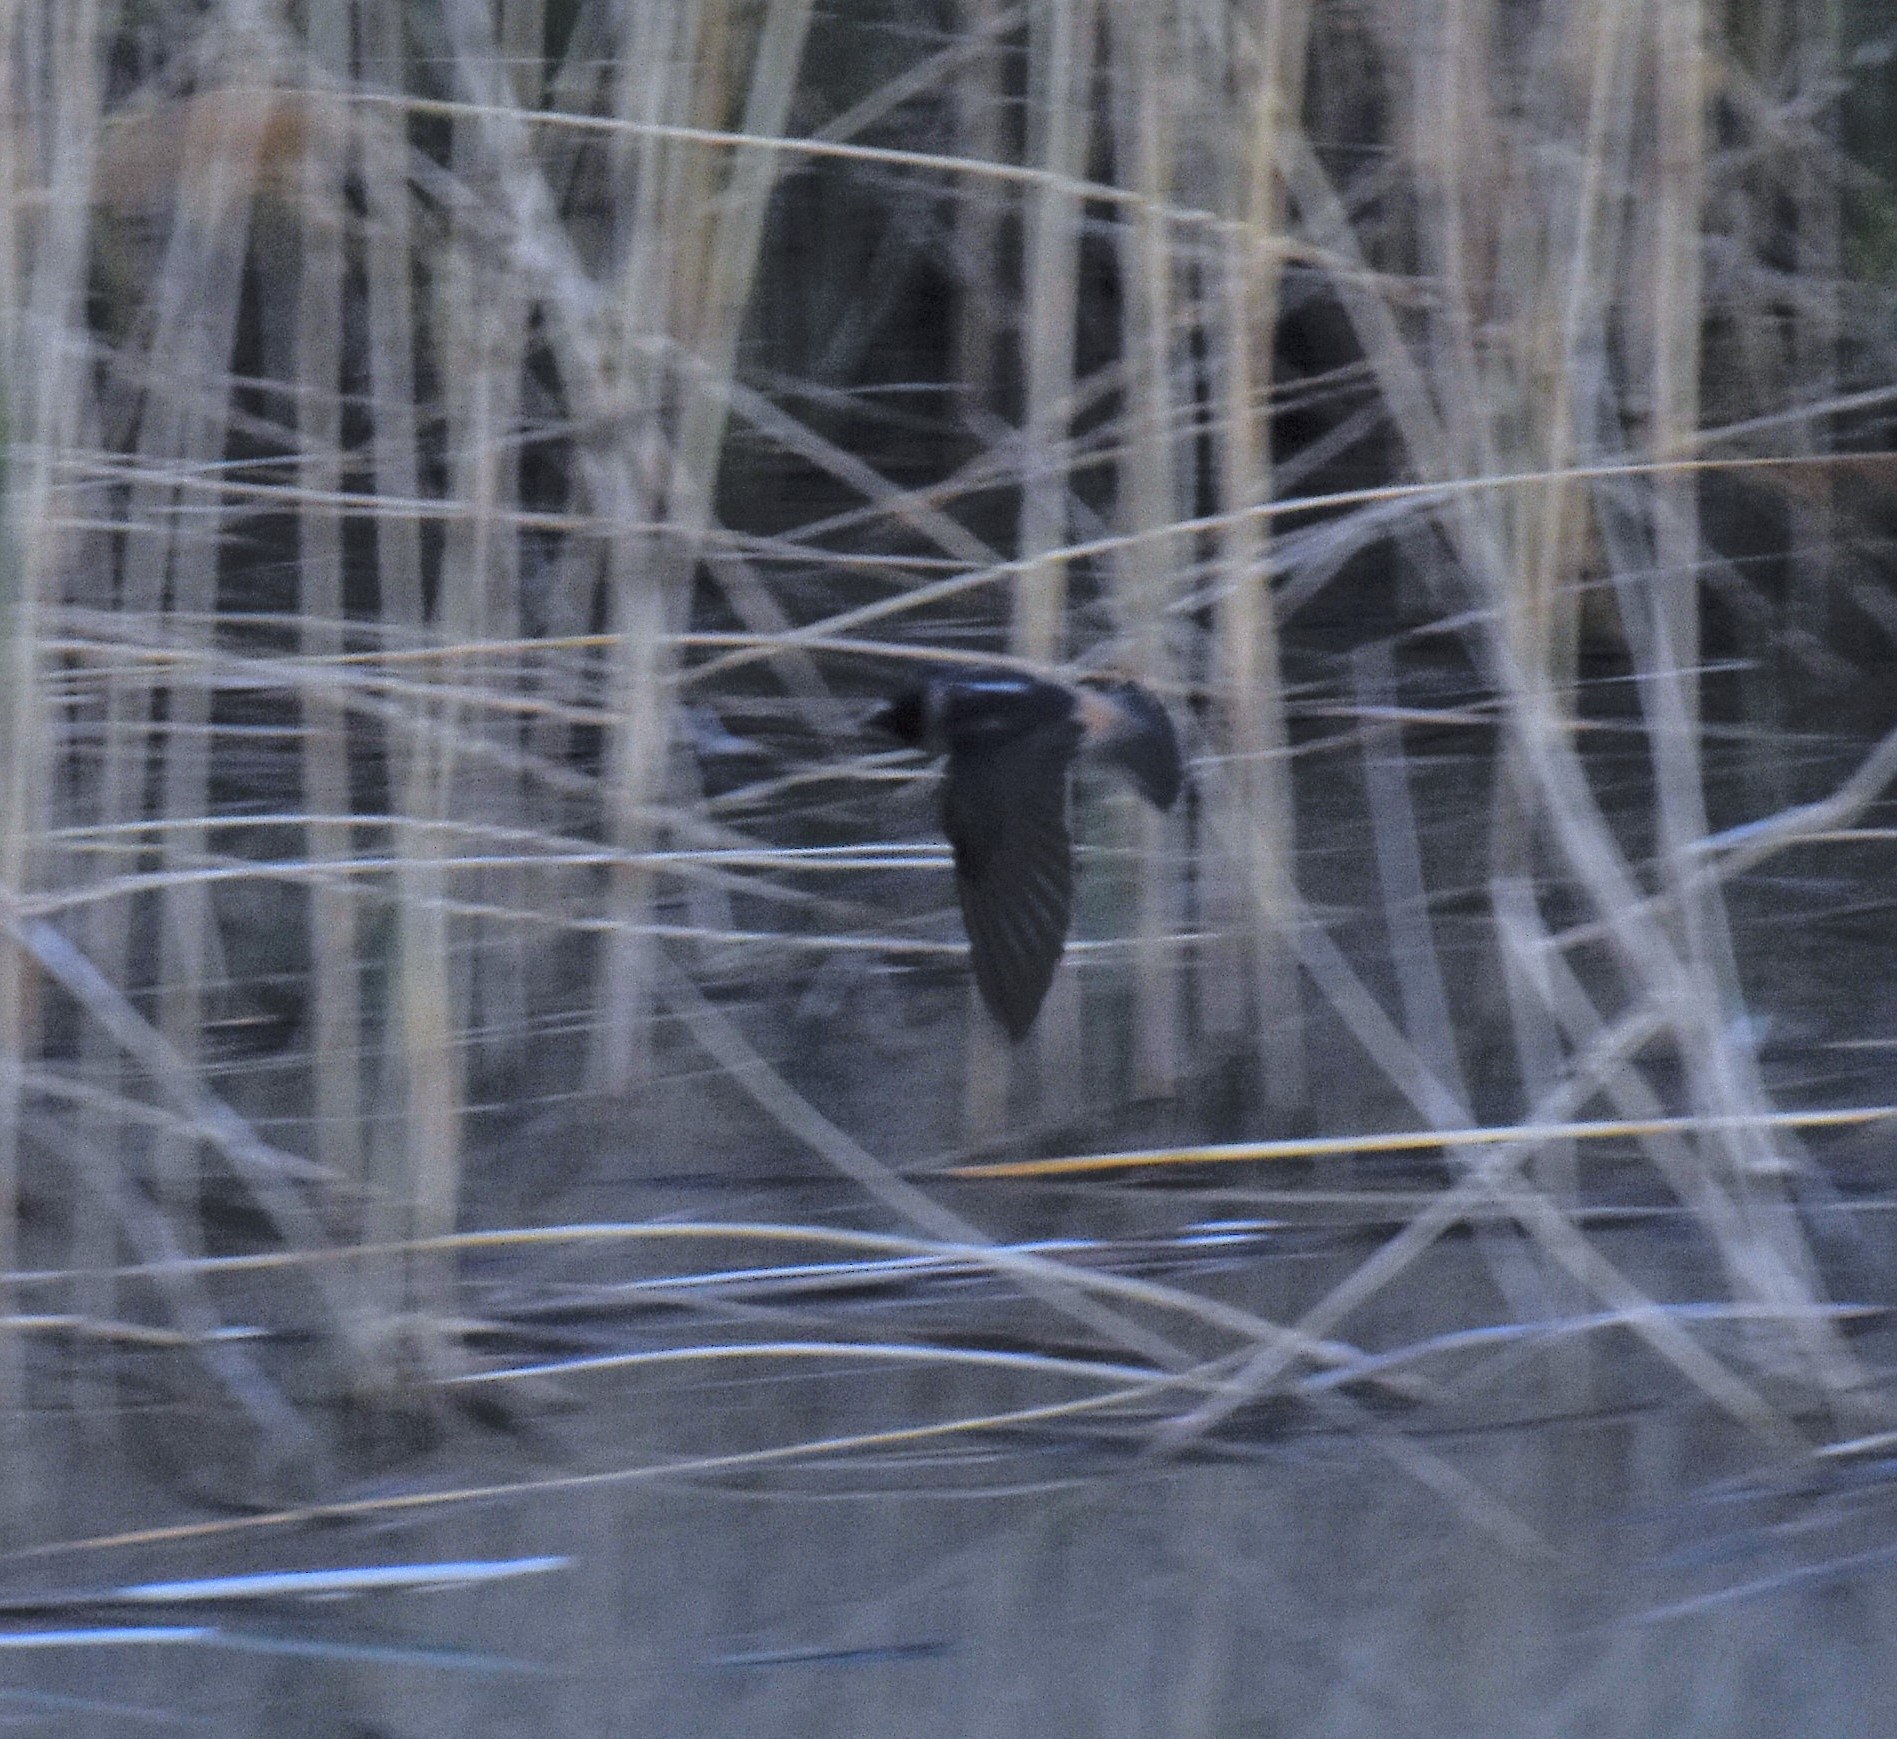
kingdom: Animalia
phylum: Chordata
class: Aves
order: Passeriformes
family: Hirundinidae
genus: Petrochelidon
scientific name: Petrochelidon pyrrhonota
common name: American cliff swallow
